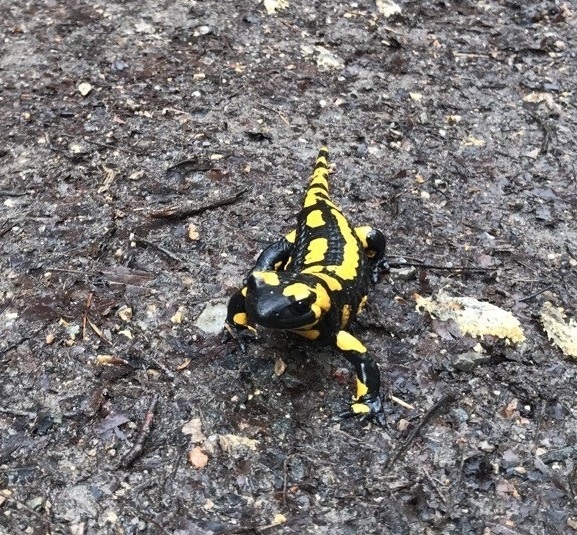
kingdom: Animalia
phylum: Chordata
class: Amphibia
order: Caudata
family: Salamandridae
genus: Salamandra
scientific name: Salamandra salamandra
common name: Fire salamander
